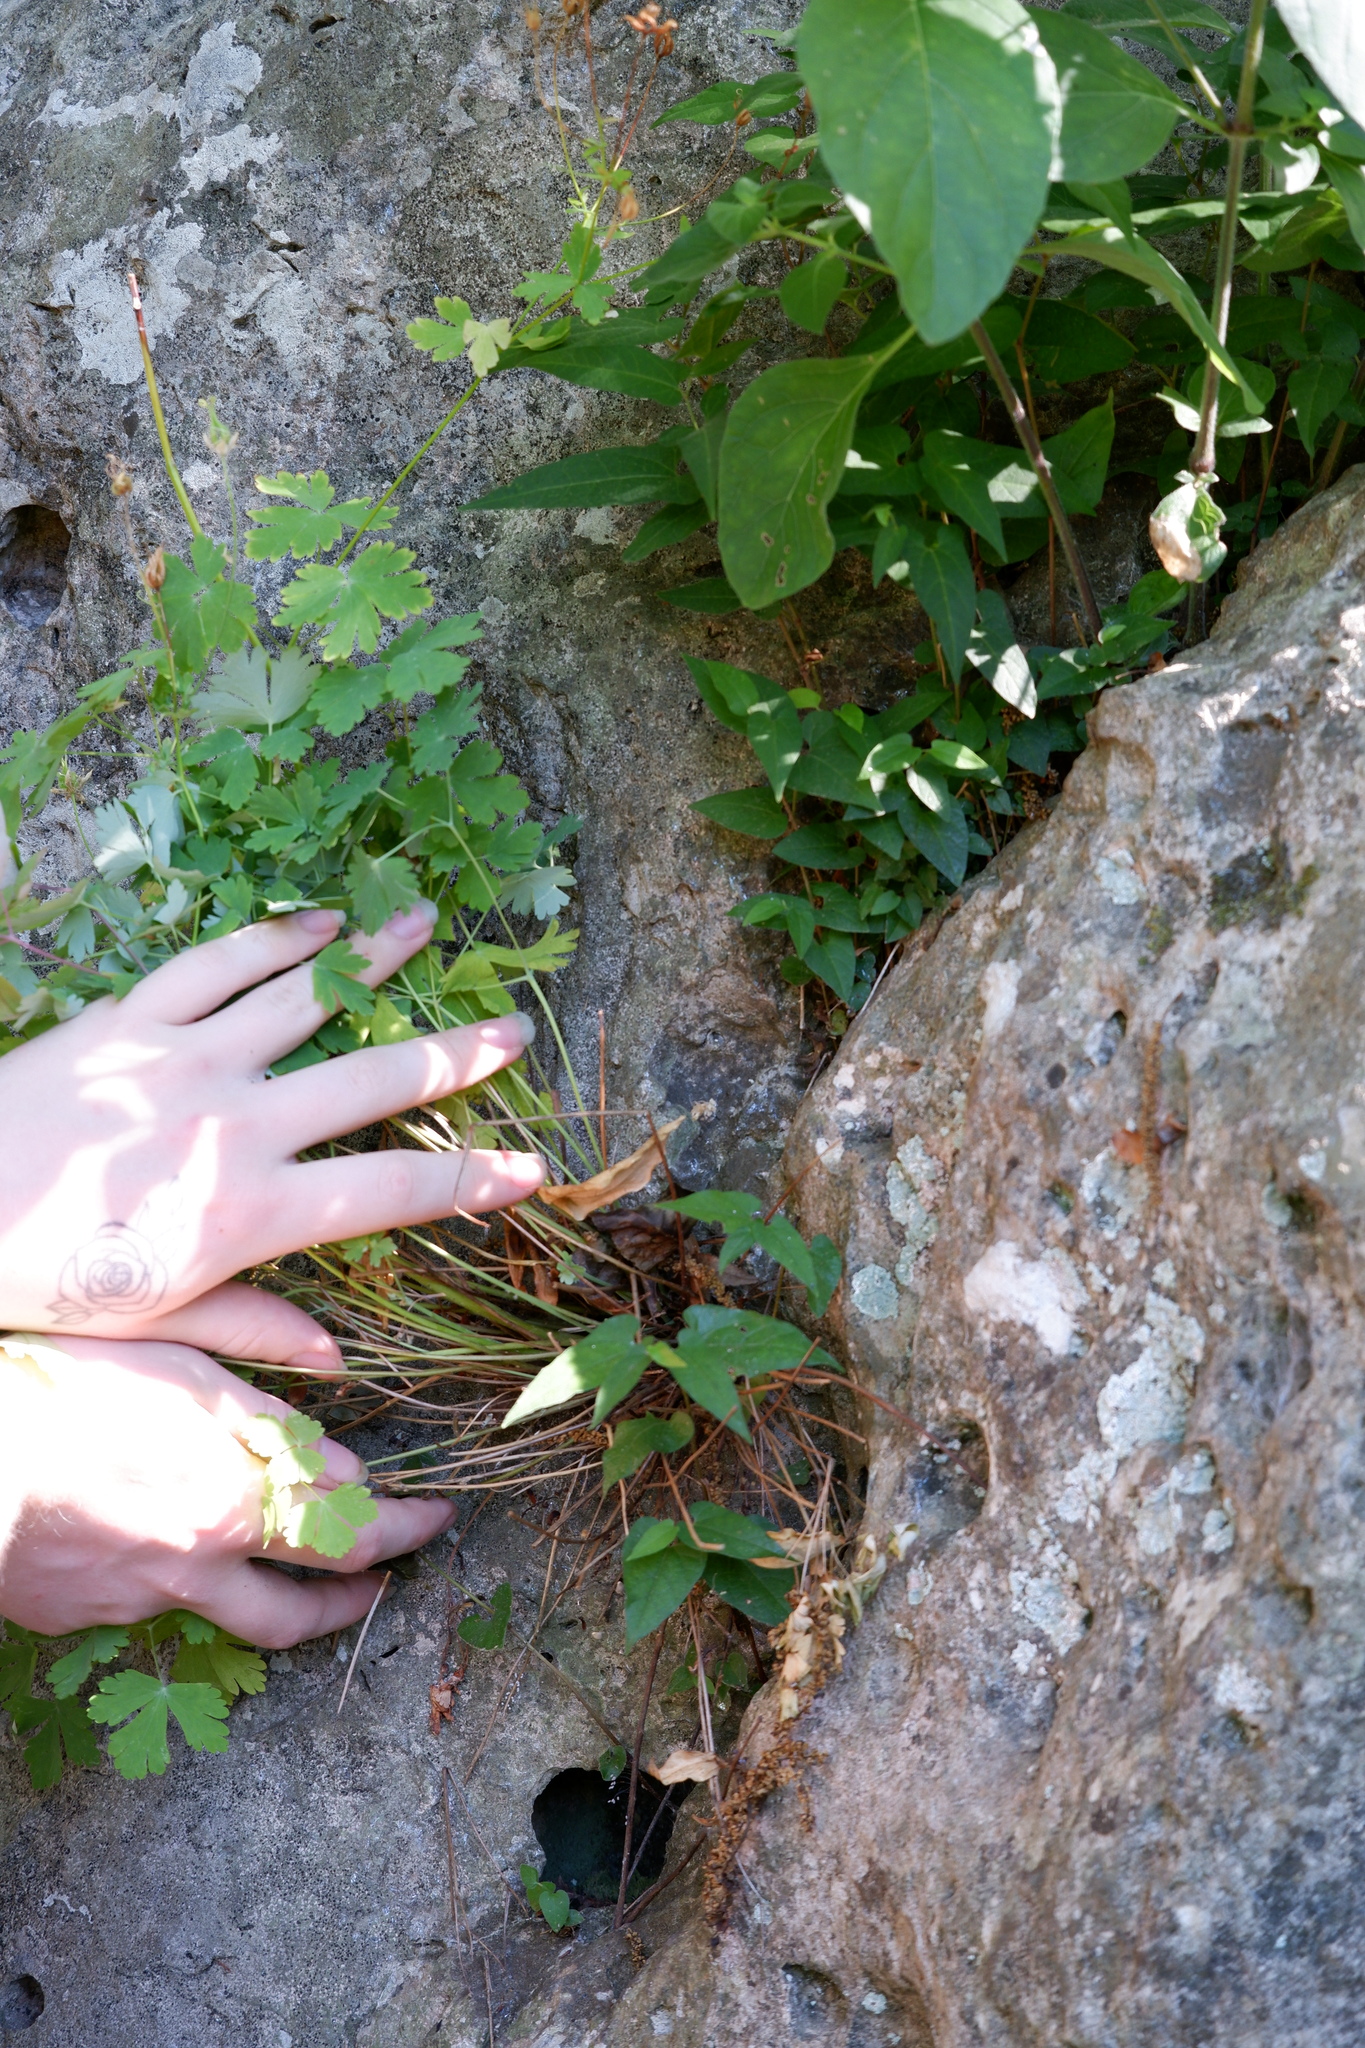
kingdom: Plantae
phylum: Tracheophyta
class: Magnoliopsida
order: Piperales
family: Aristolochiaceae
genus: Endodeca
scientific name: Endodeca serpentaria
